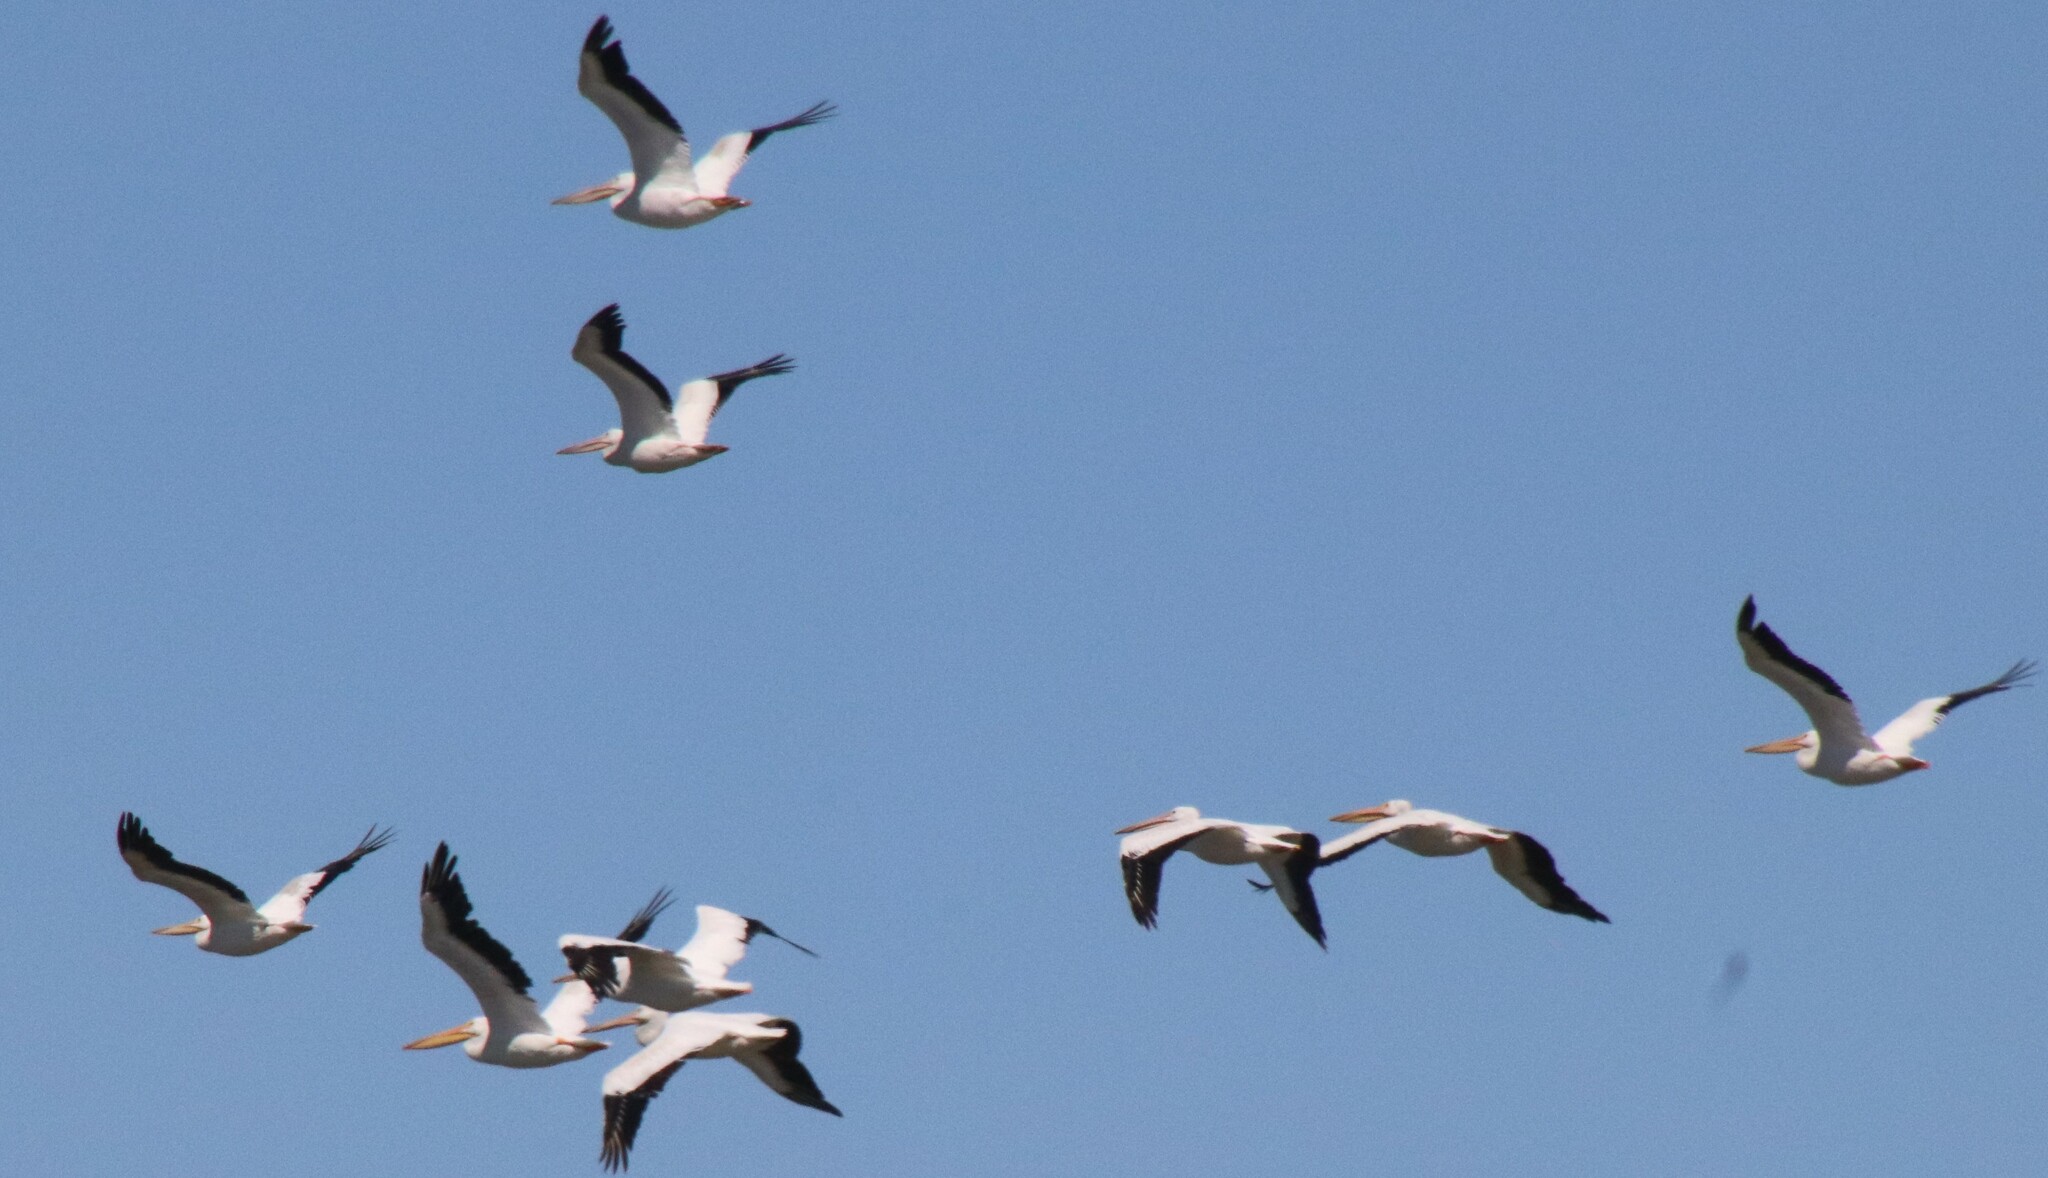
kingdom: Animalia
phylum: Chordata
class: Aves
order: Pelecaniformes
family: Pelecanidae
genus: Pelecanus
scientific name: Pelecanus erythrorhynchos
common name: American white pelican
